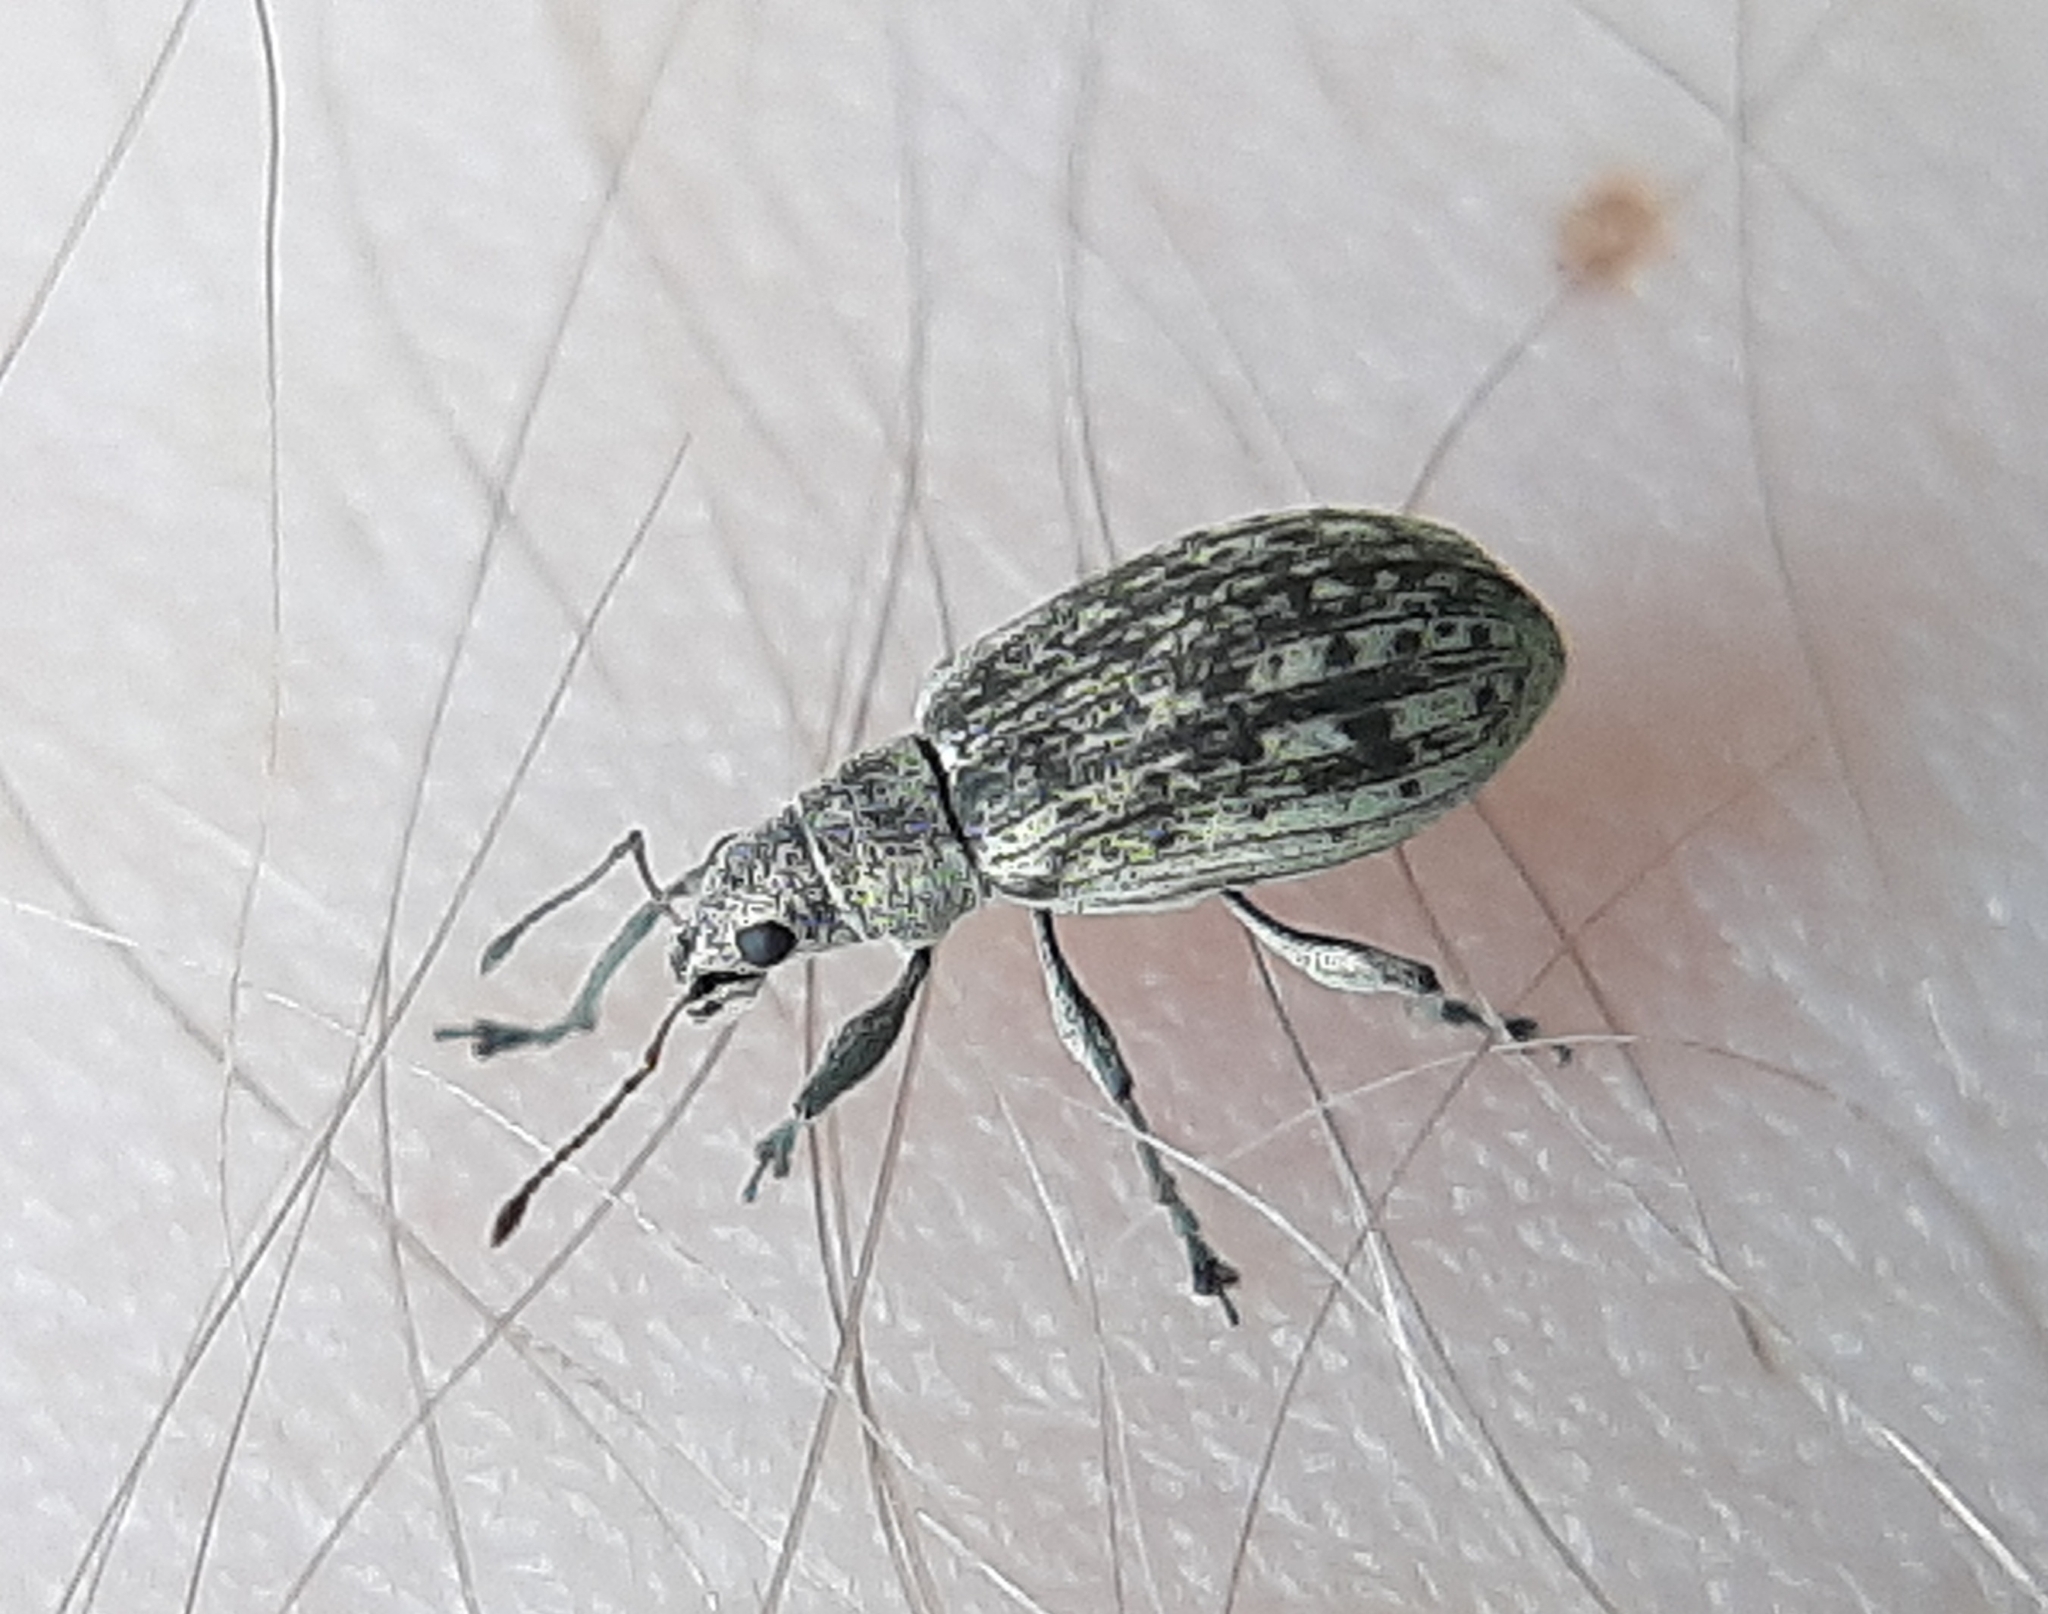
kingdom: Animalia
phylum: Arthropoda
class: Insecta
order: Coleoptera
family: Curculionidae
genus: Polydrusus
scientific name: Polydrusus cervinus
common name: Weevil
